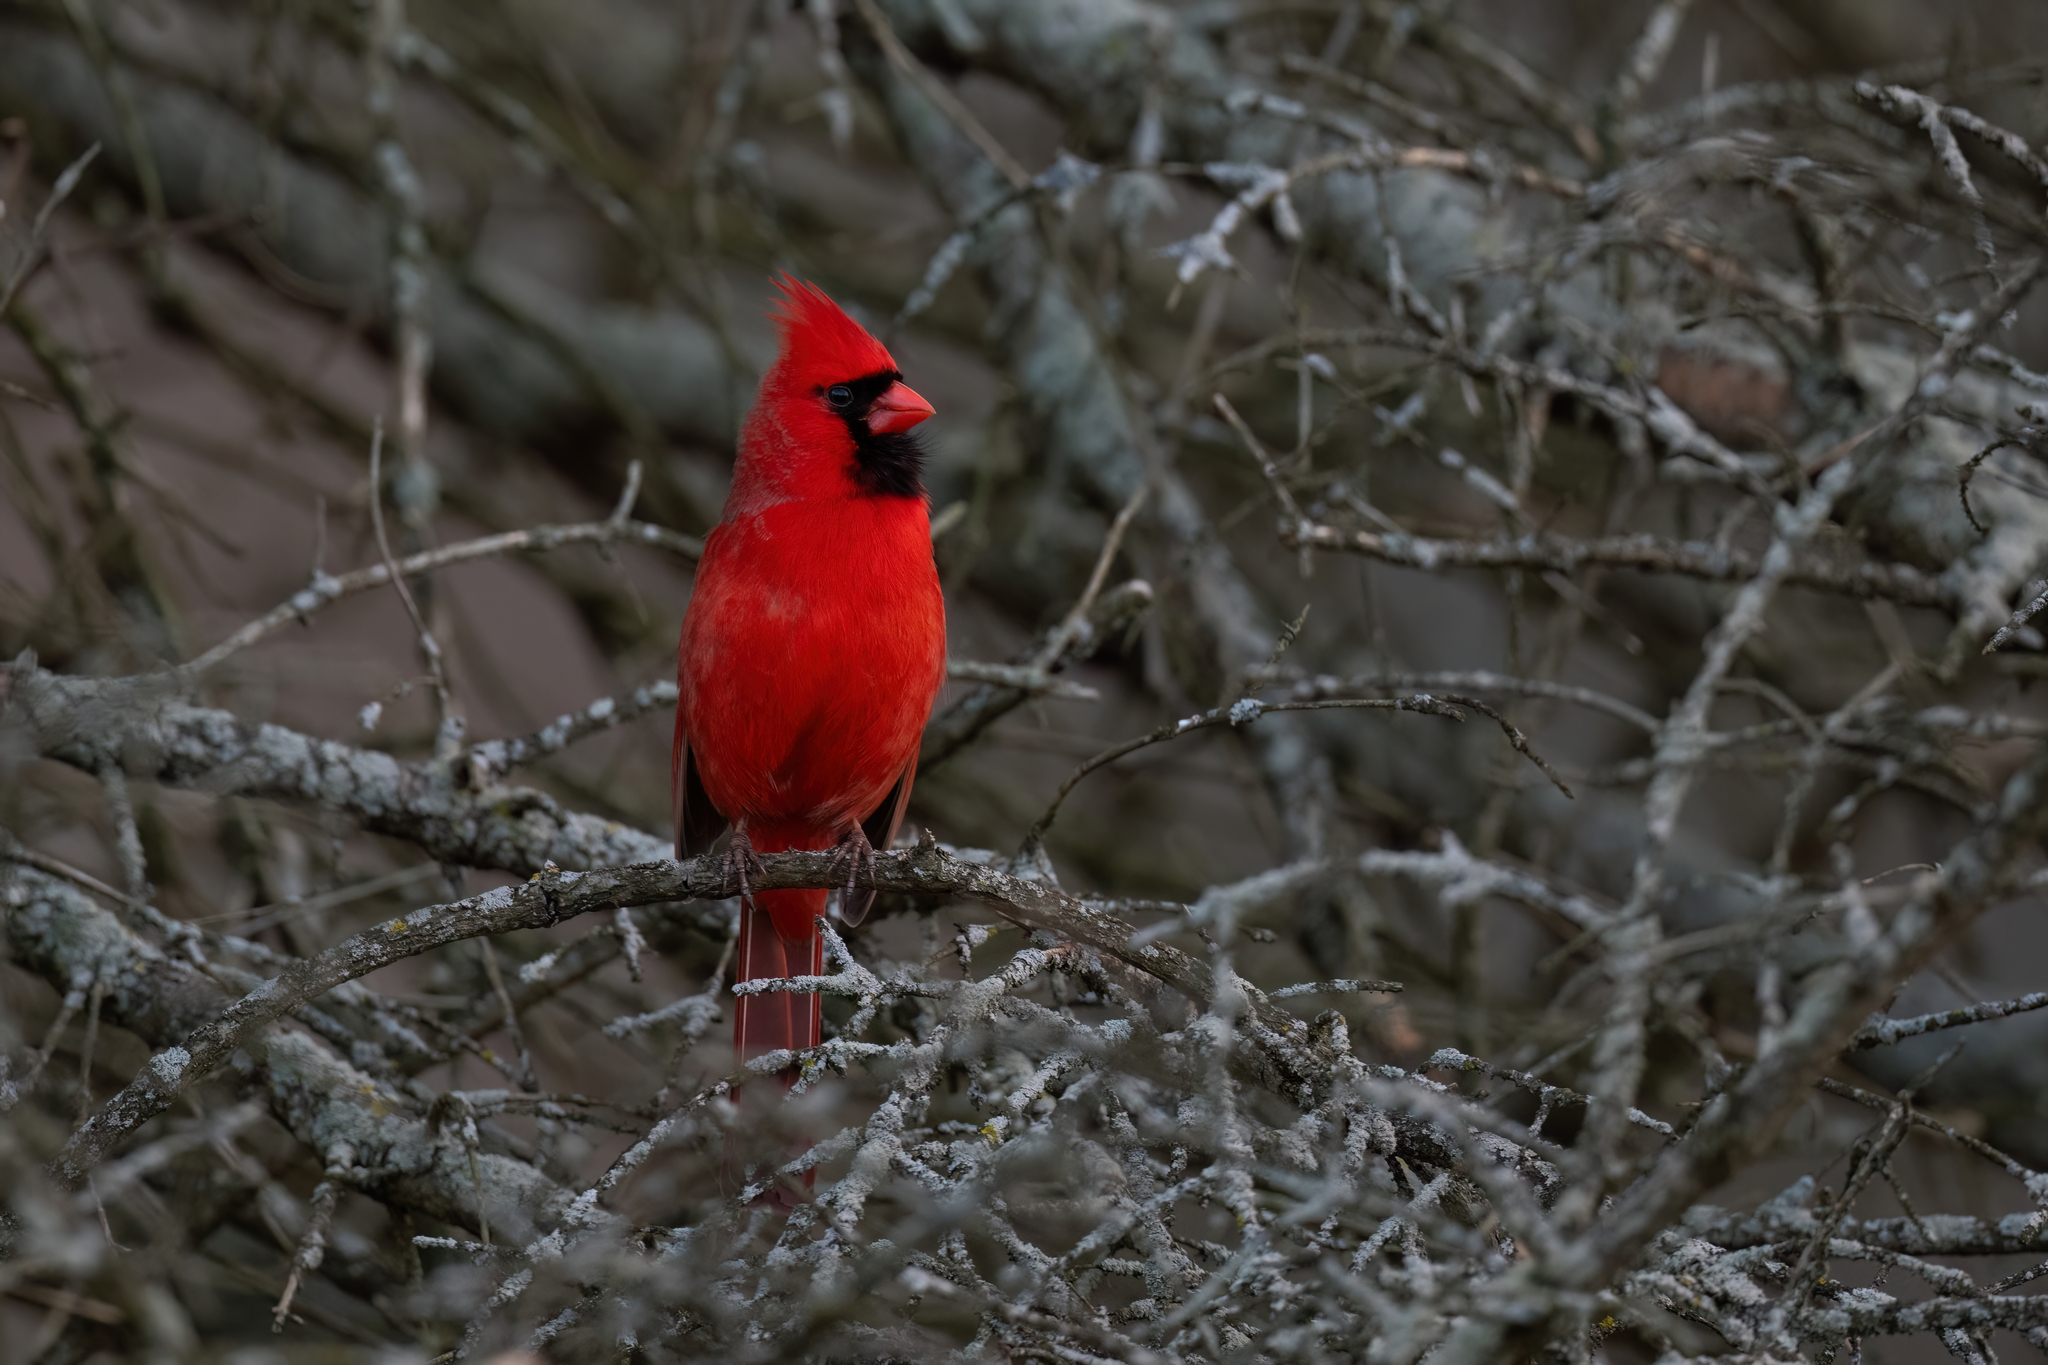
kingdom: Animalia
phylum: Chordata
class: Aves
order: Passeriformes
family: Cardinalidae
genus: Cardinalis
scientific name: Cardinalis cardinalis
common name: Northern cardinal
